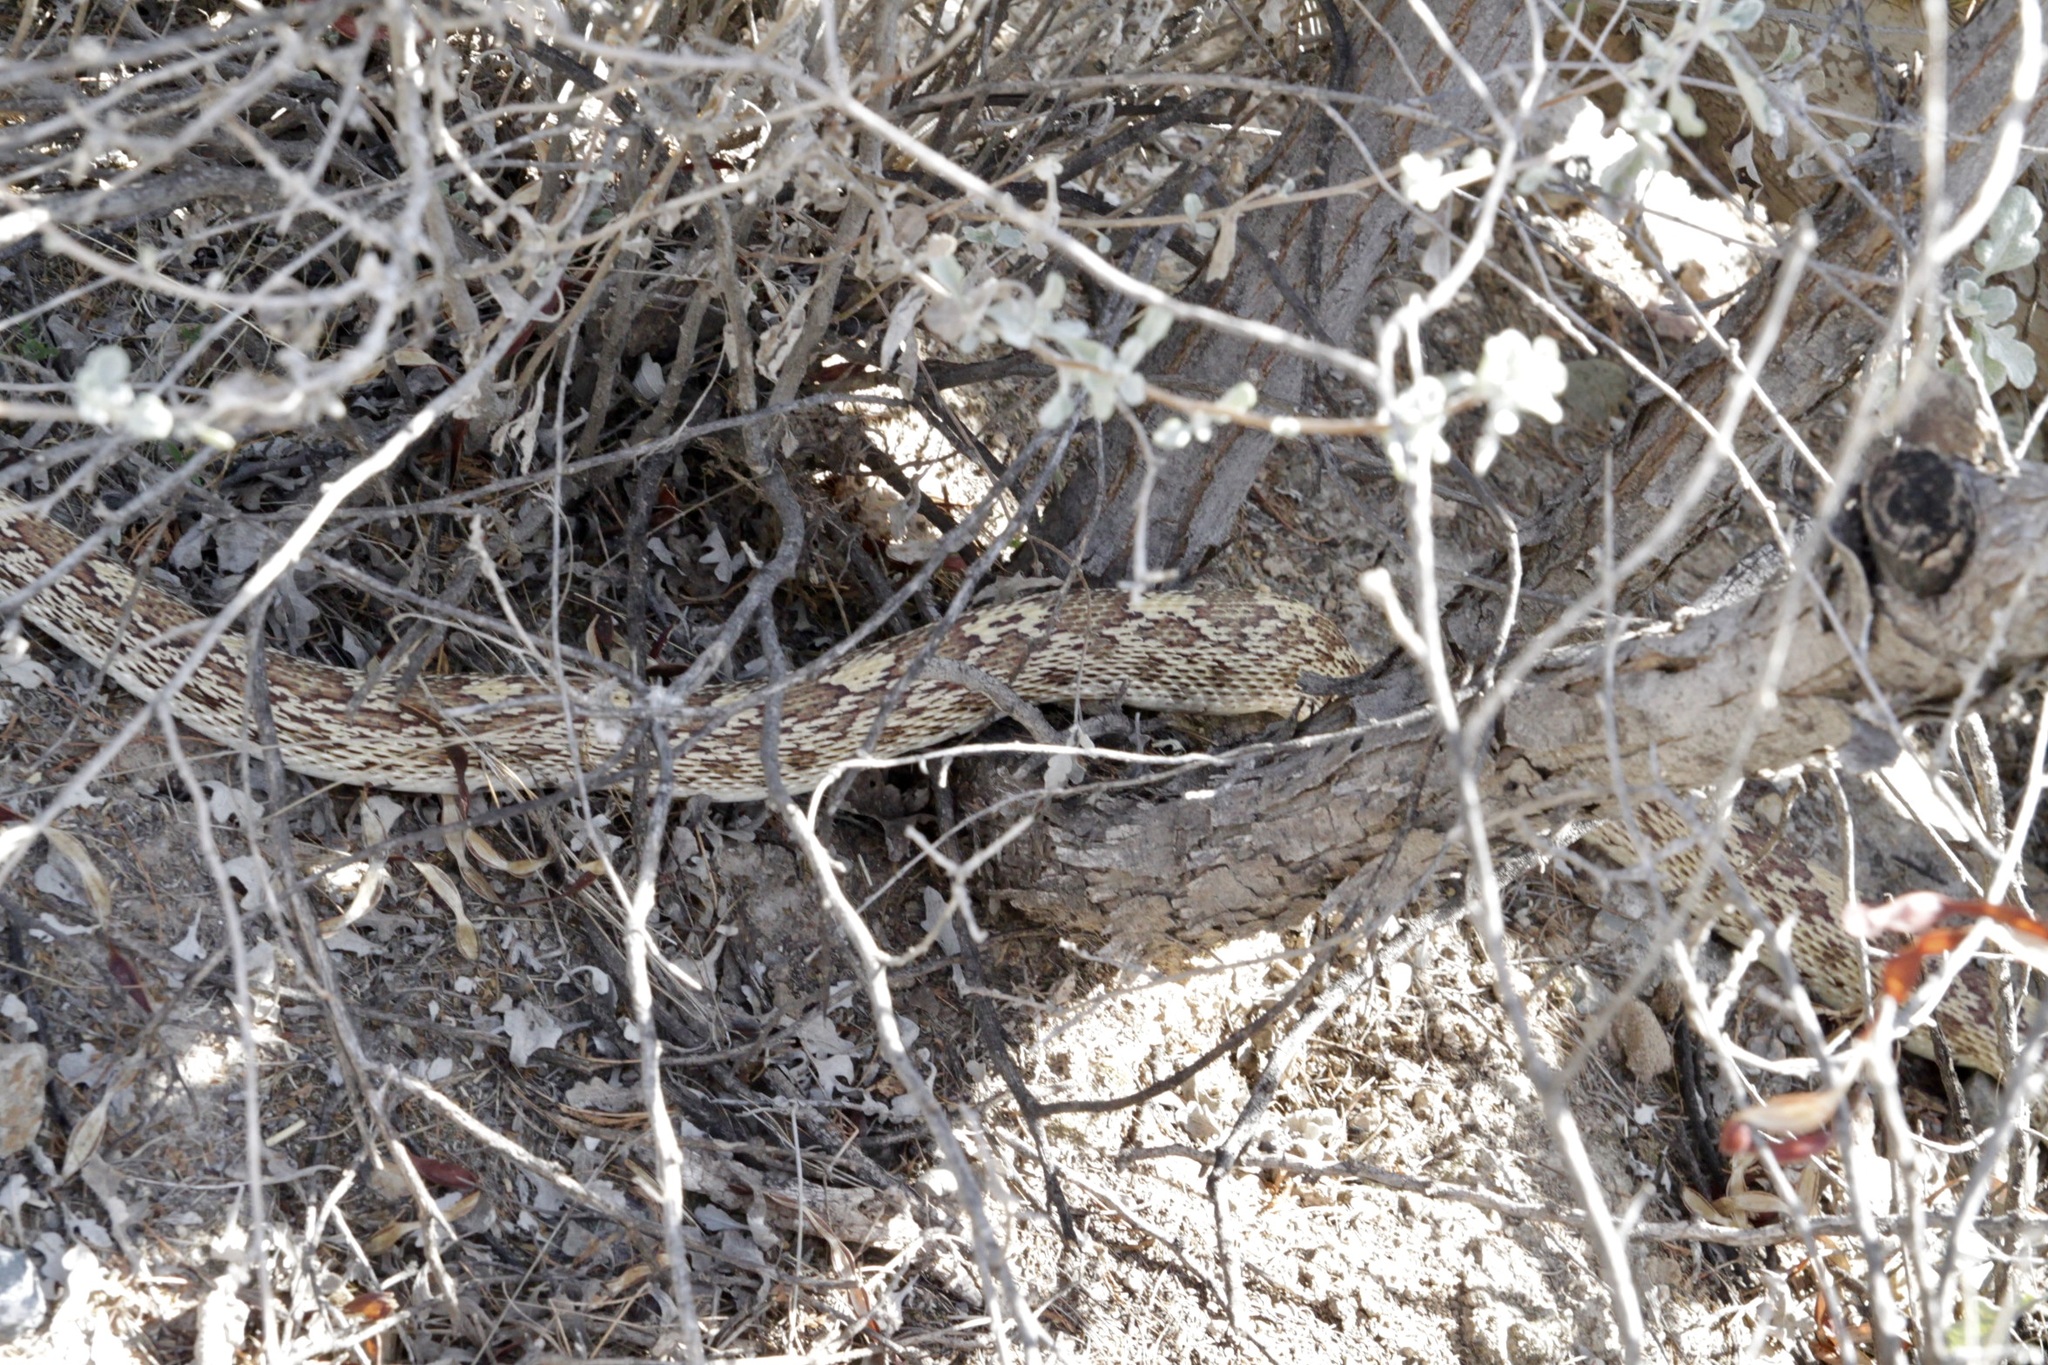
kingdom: Animalia
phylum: Chordata
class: Squamata
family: Colubridae
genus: Pituophis
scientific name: Pituophis catenifer
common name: Gopher snake
